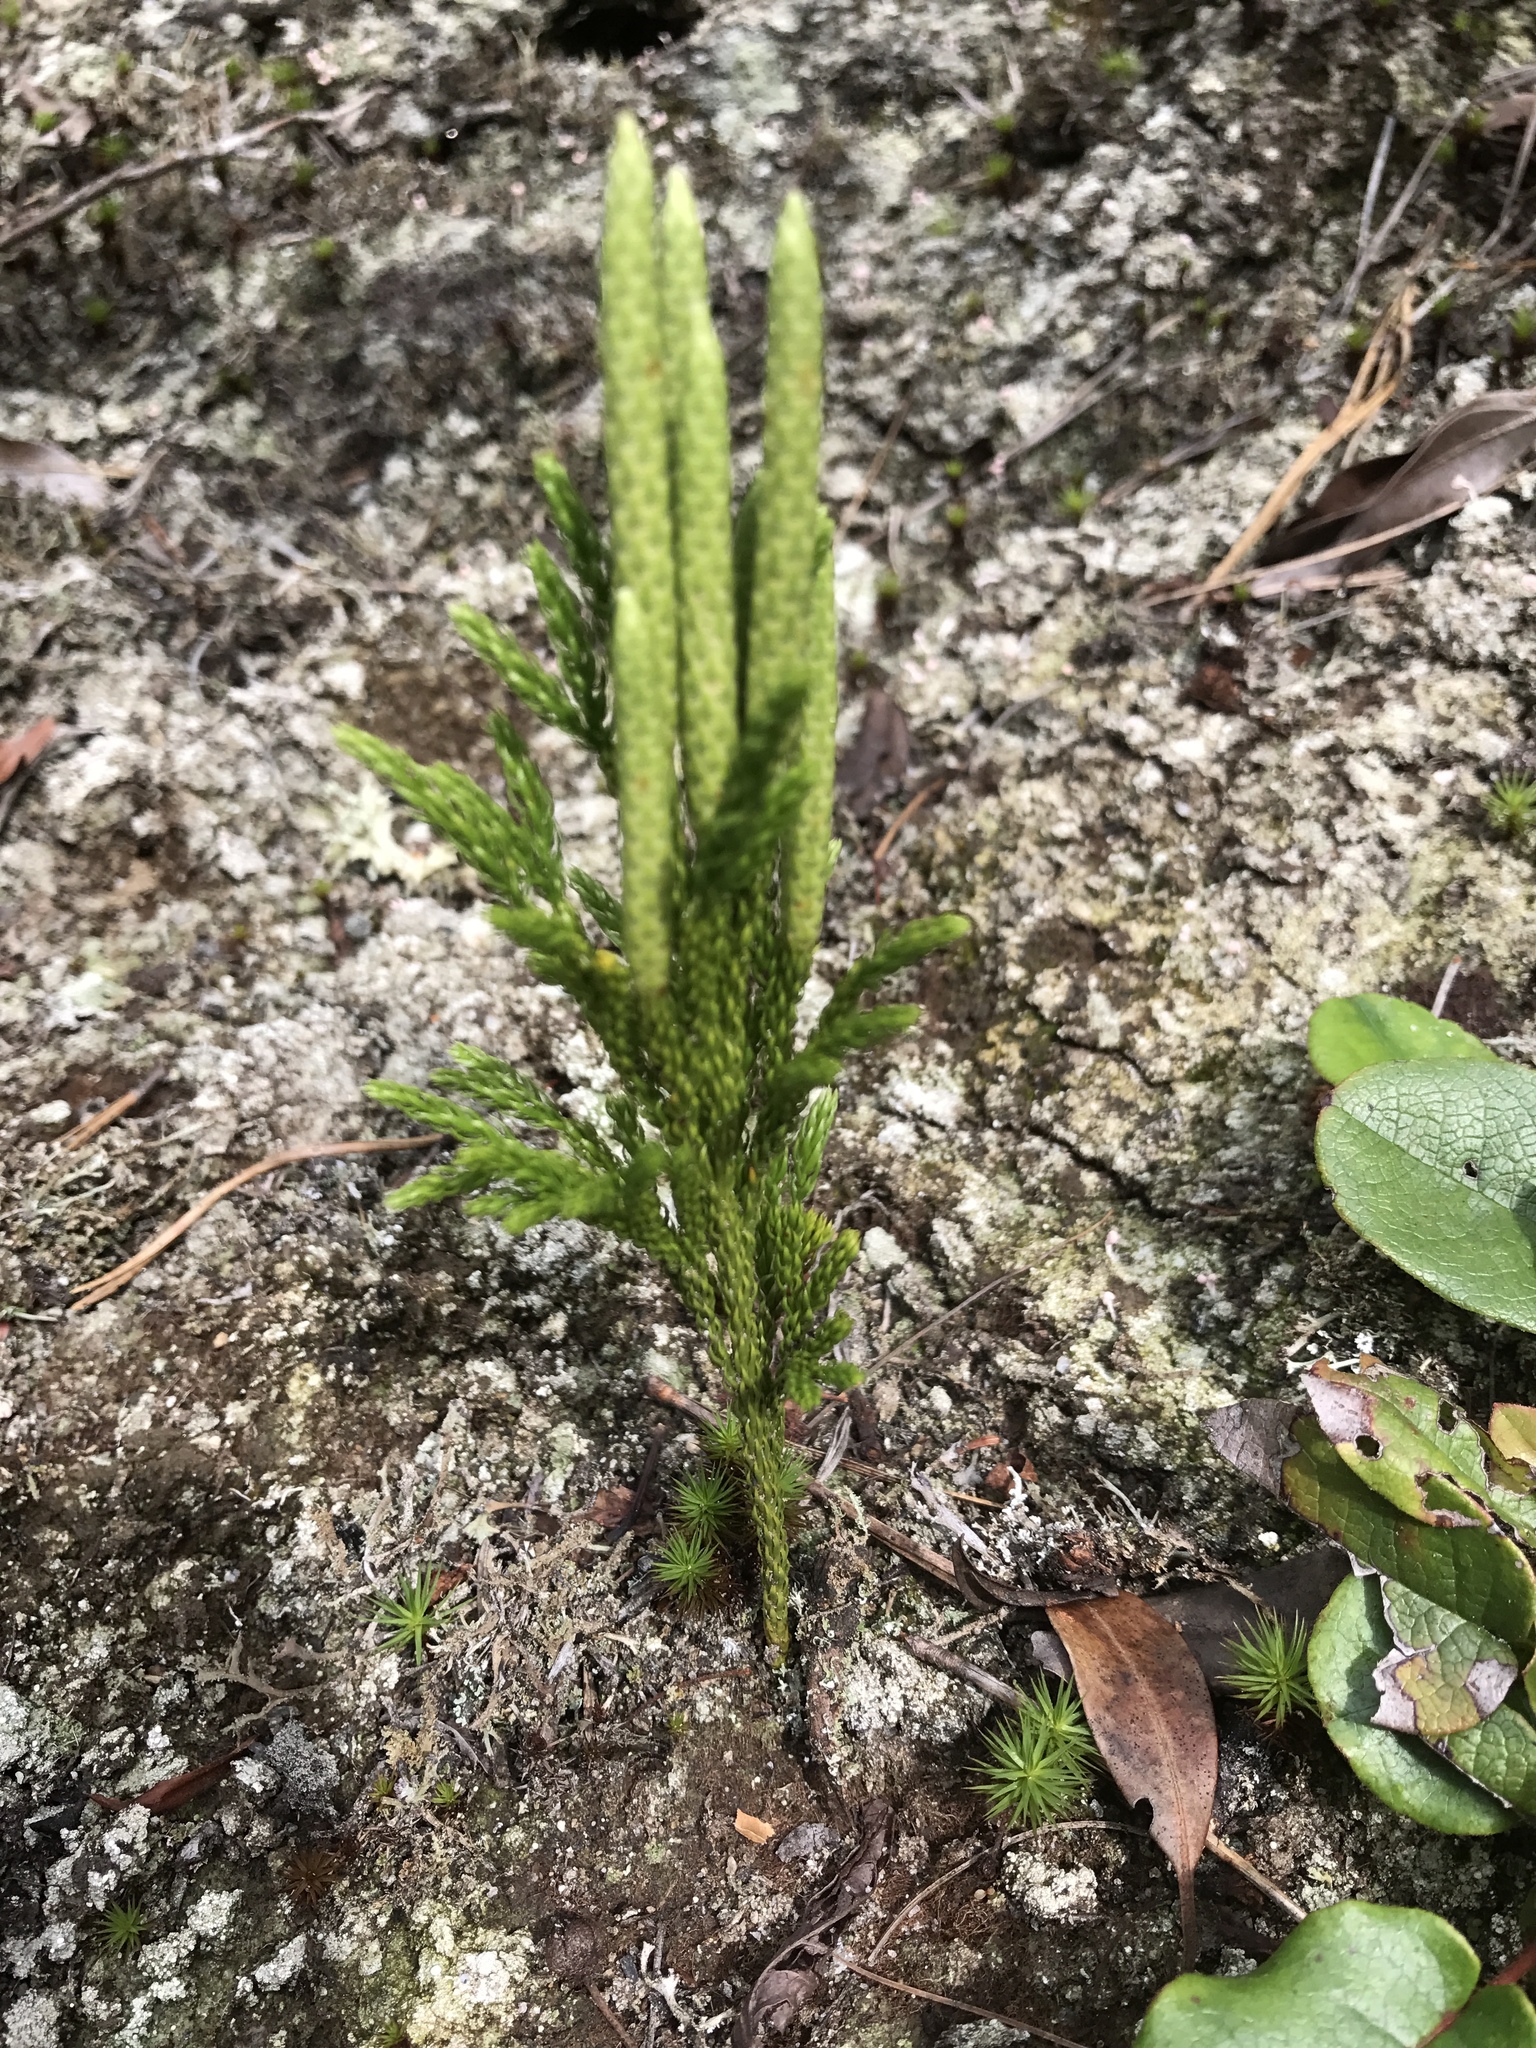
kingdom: Plantae
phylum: Tracheophyta
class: Lycopodiopsida
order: Lycopodiales
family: Lycopodiaceae
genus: Dendrolycopodium
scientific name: Dendrolycopodium hickeyi
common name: Hickey's clubmoss
